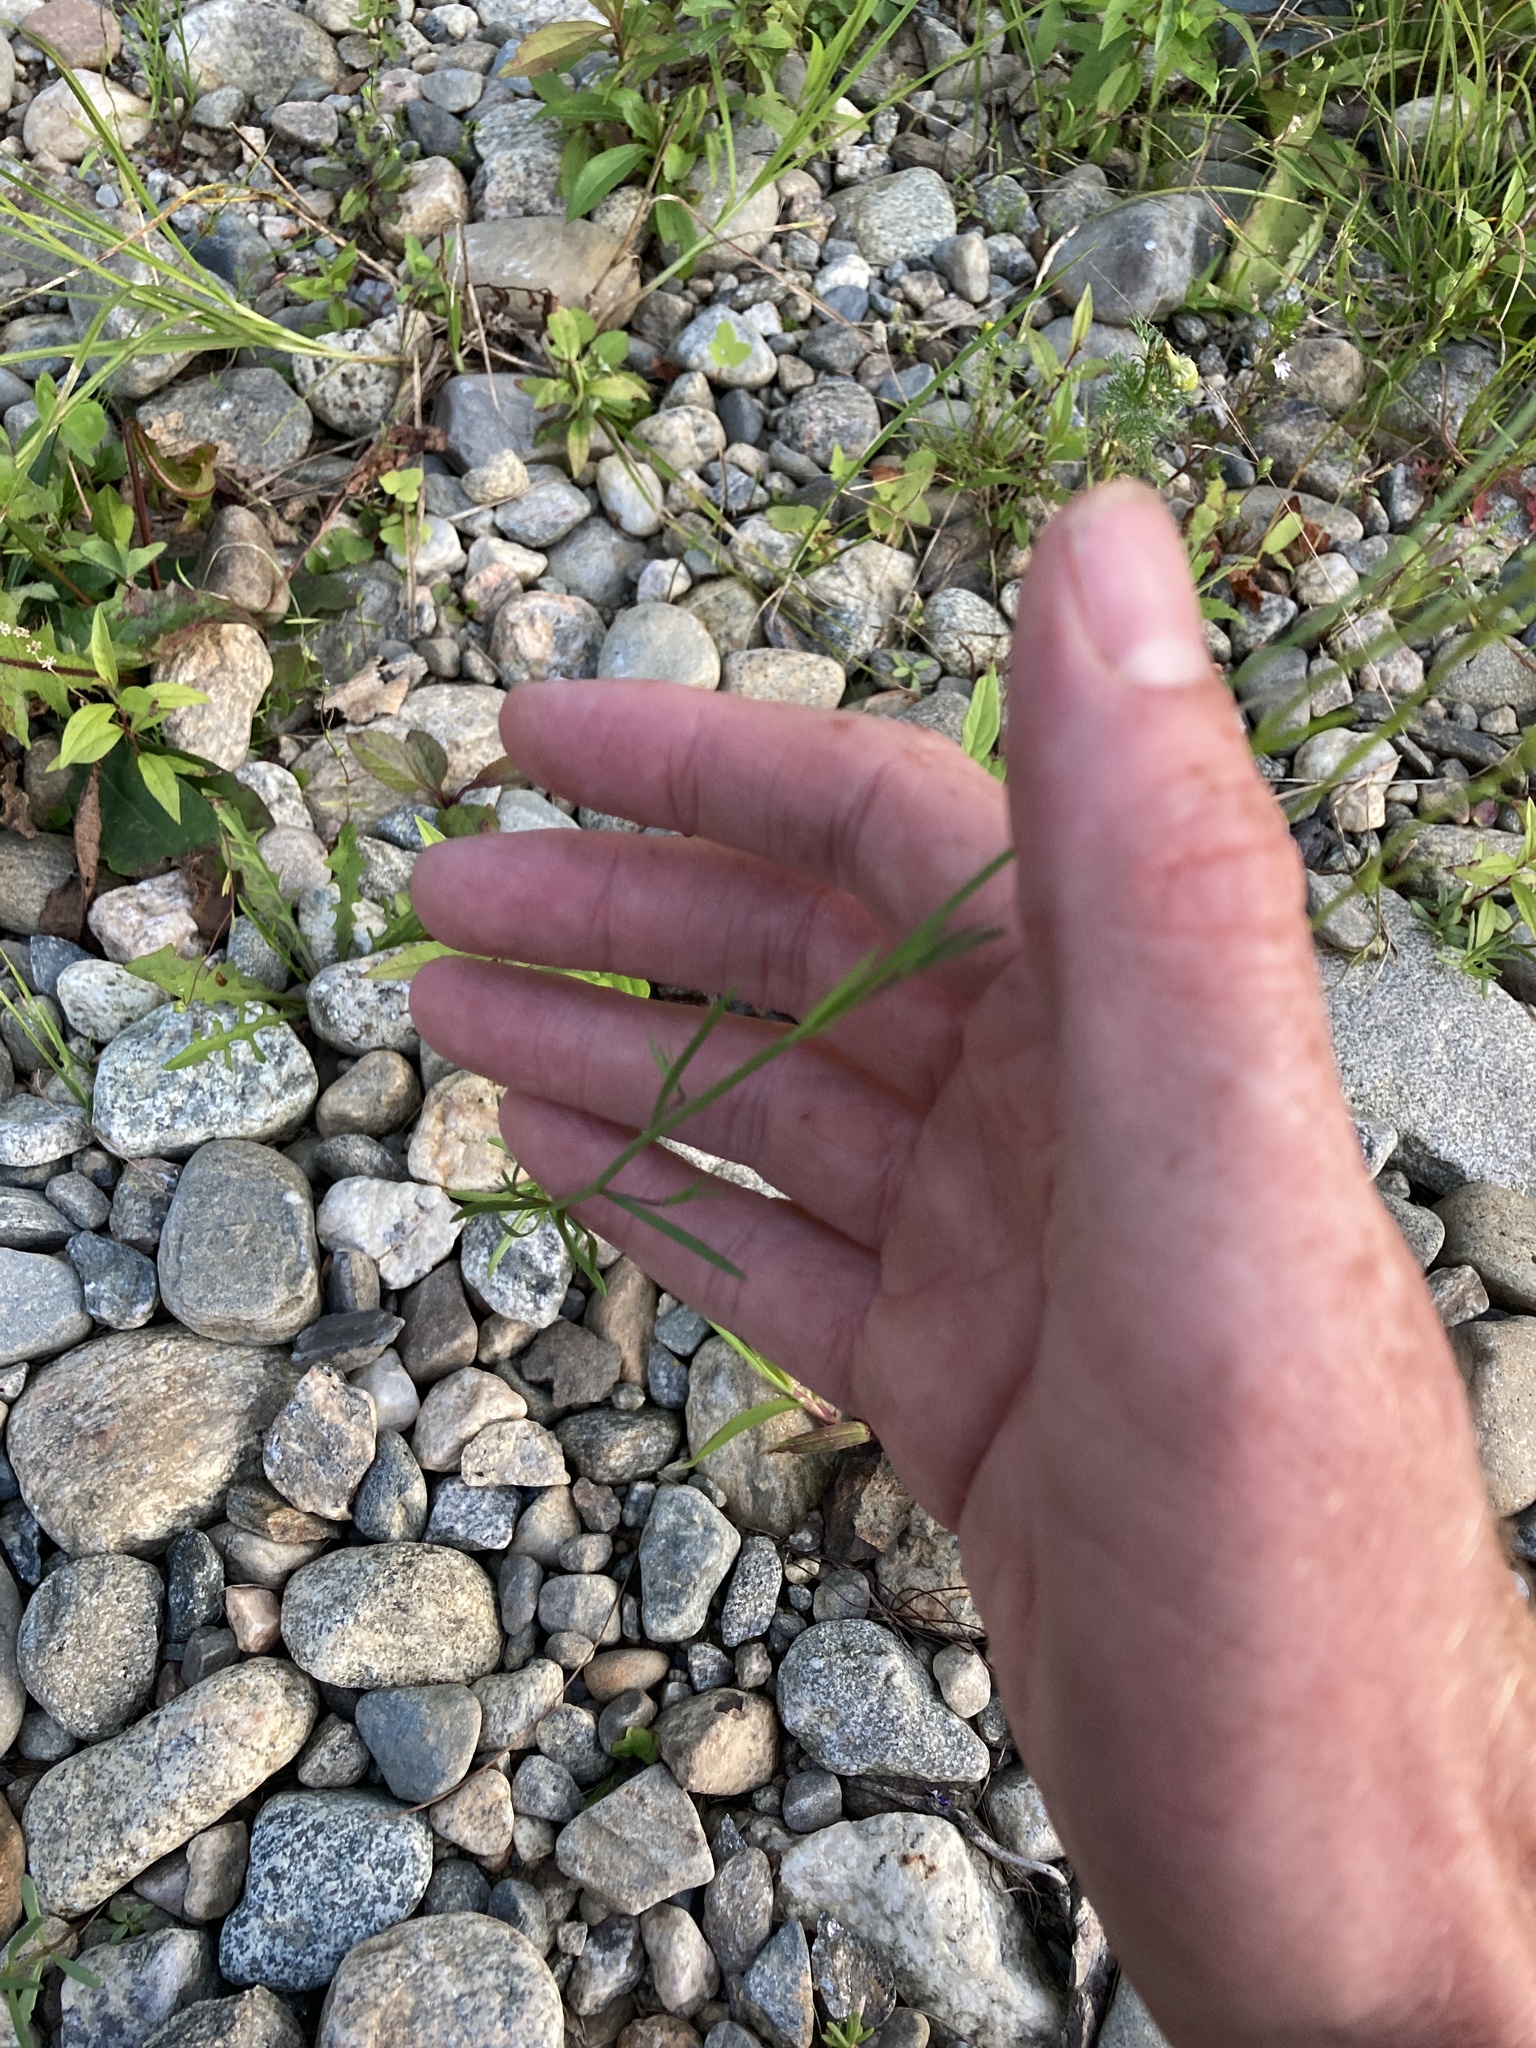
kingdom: Plantae
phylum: Tracheophyta
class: Magnoliopsida
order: Lamiales
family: Plantaginaceae
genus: Nuttallanthus
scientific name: Nuttallanthus canadensis
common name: Blue toadflax
